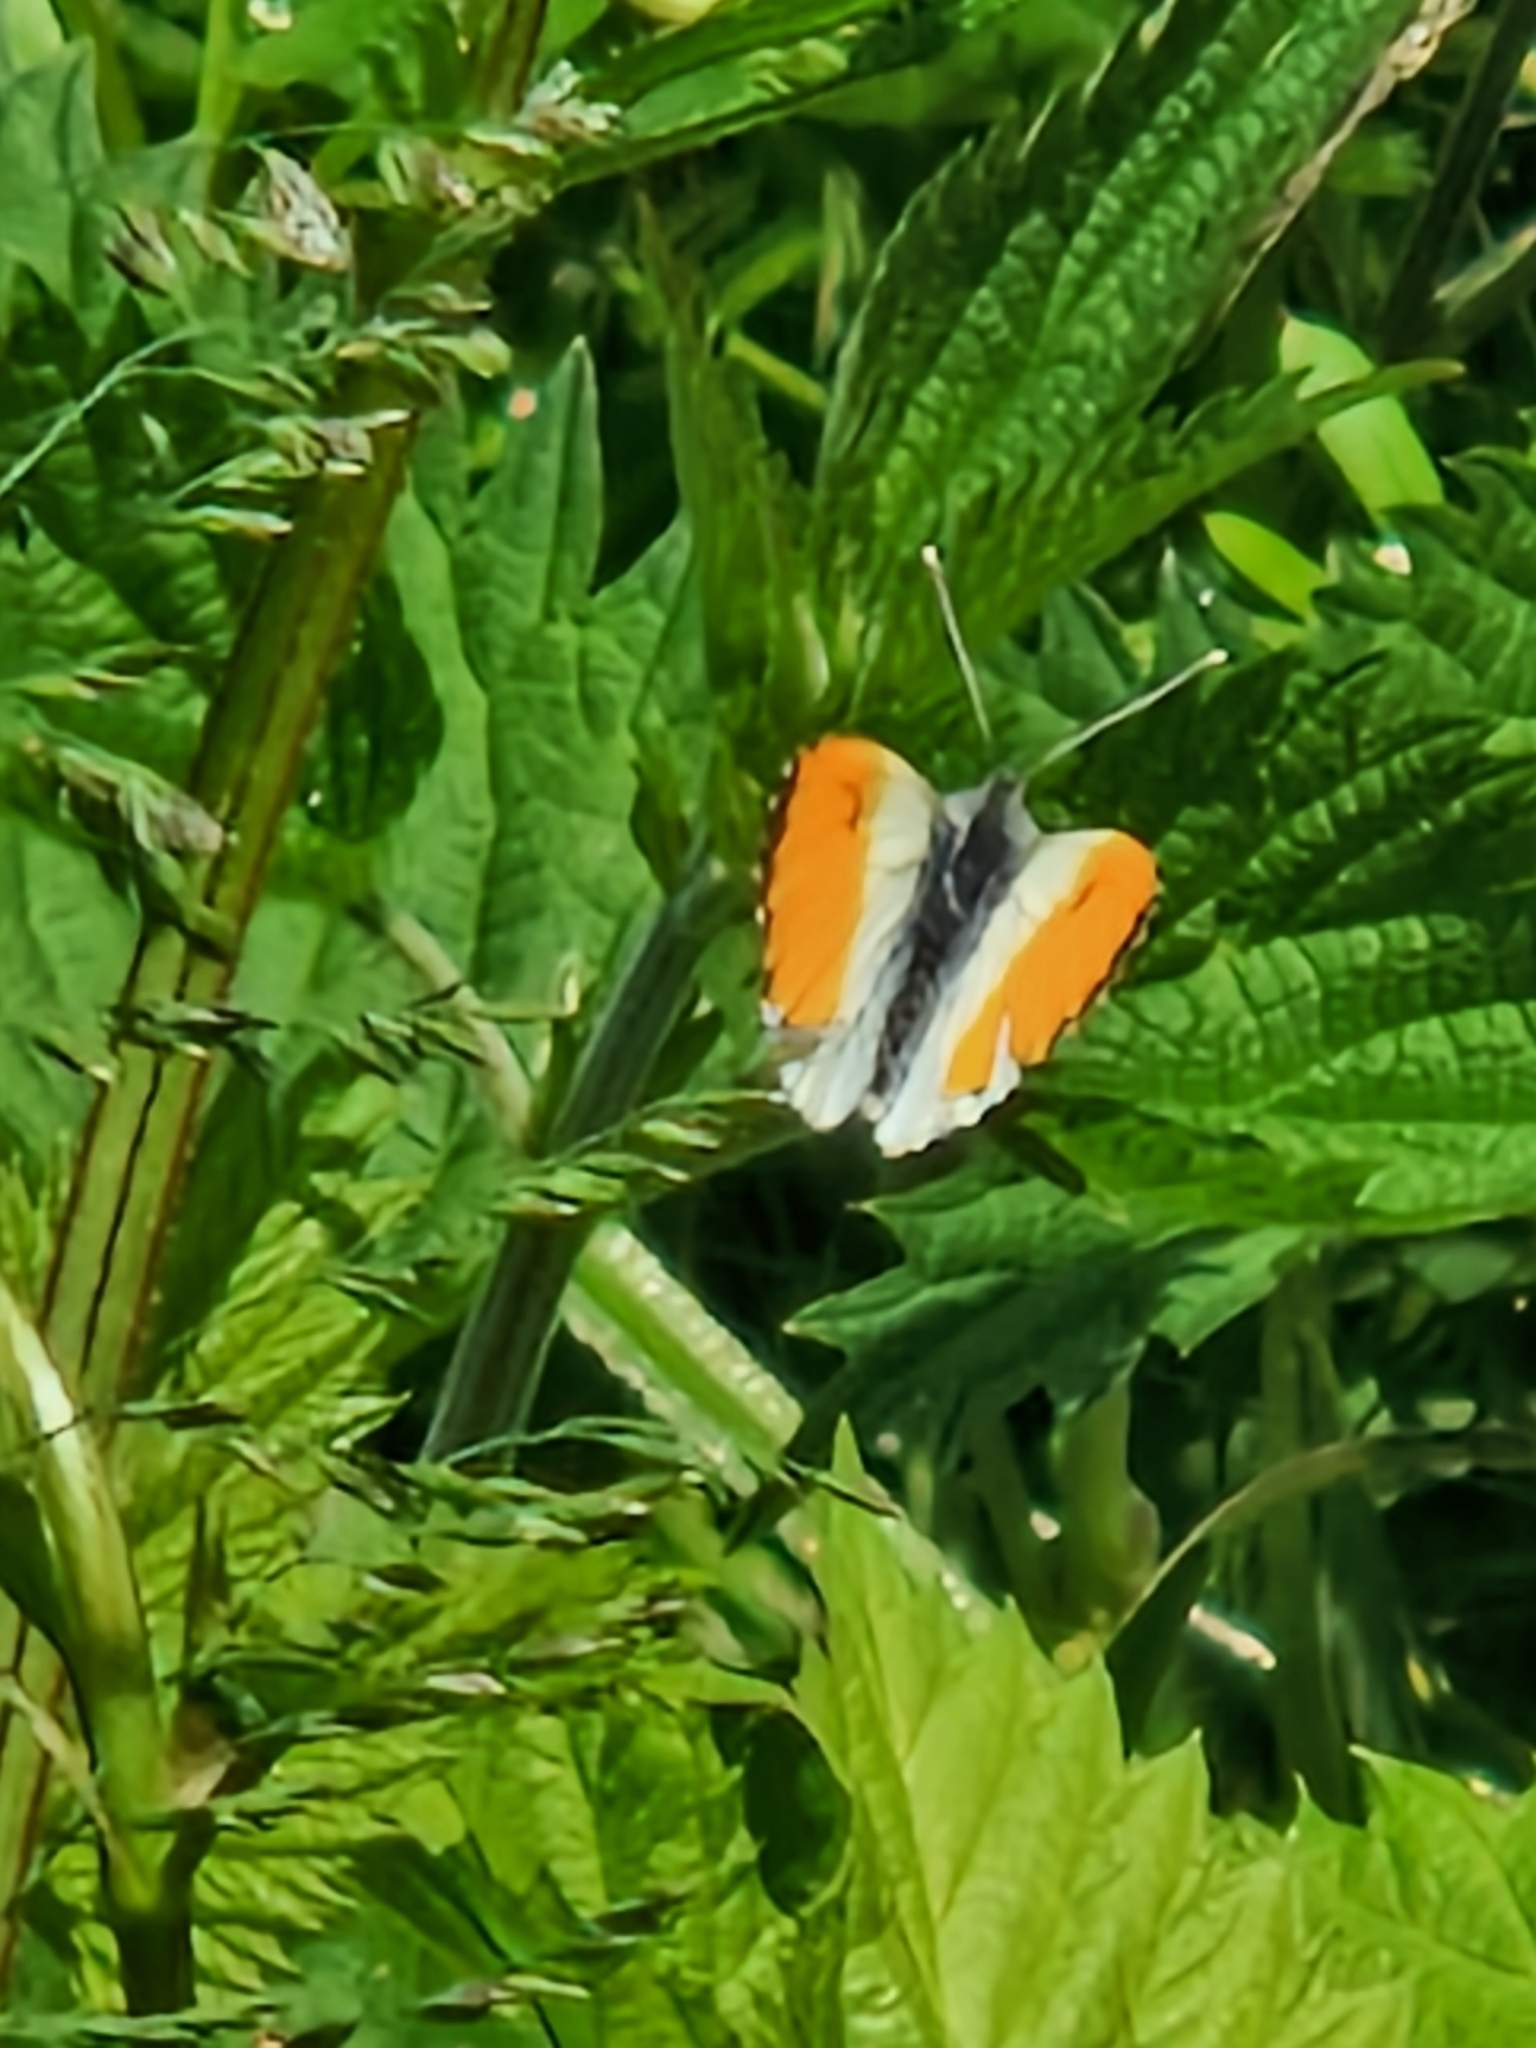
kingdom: Animalia
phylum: Arthropoda
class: Insecta
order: Lepidoptera
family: Pieridae
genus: Anthocharis
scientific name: Anthocharis cardamines
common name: Orange-tip
